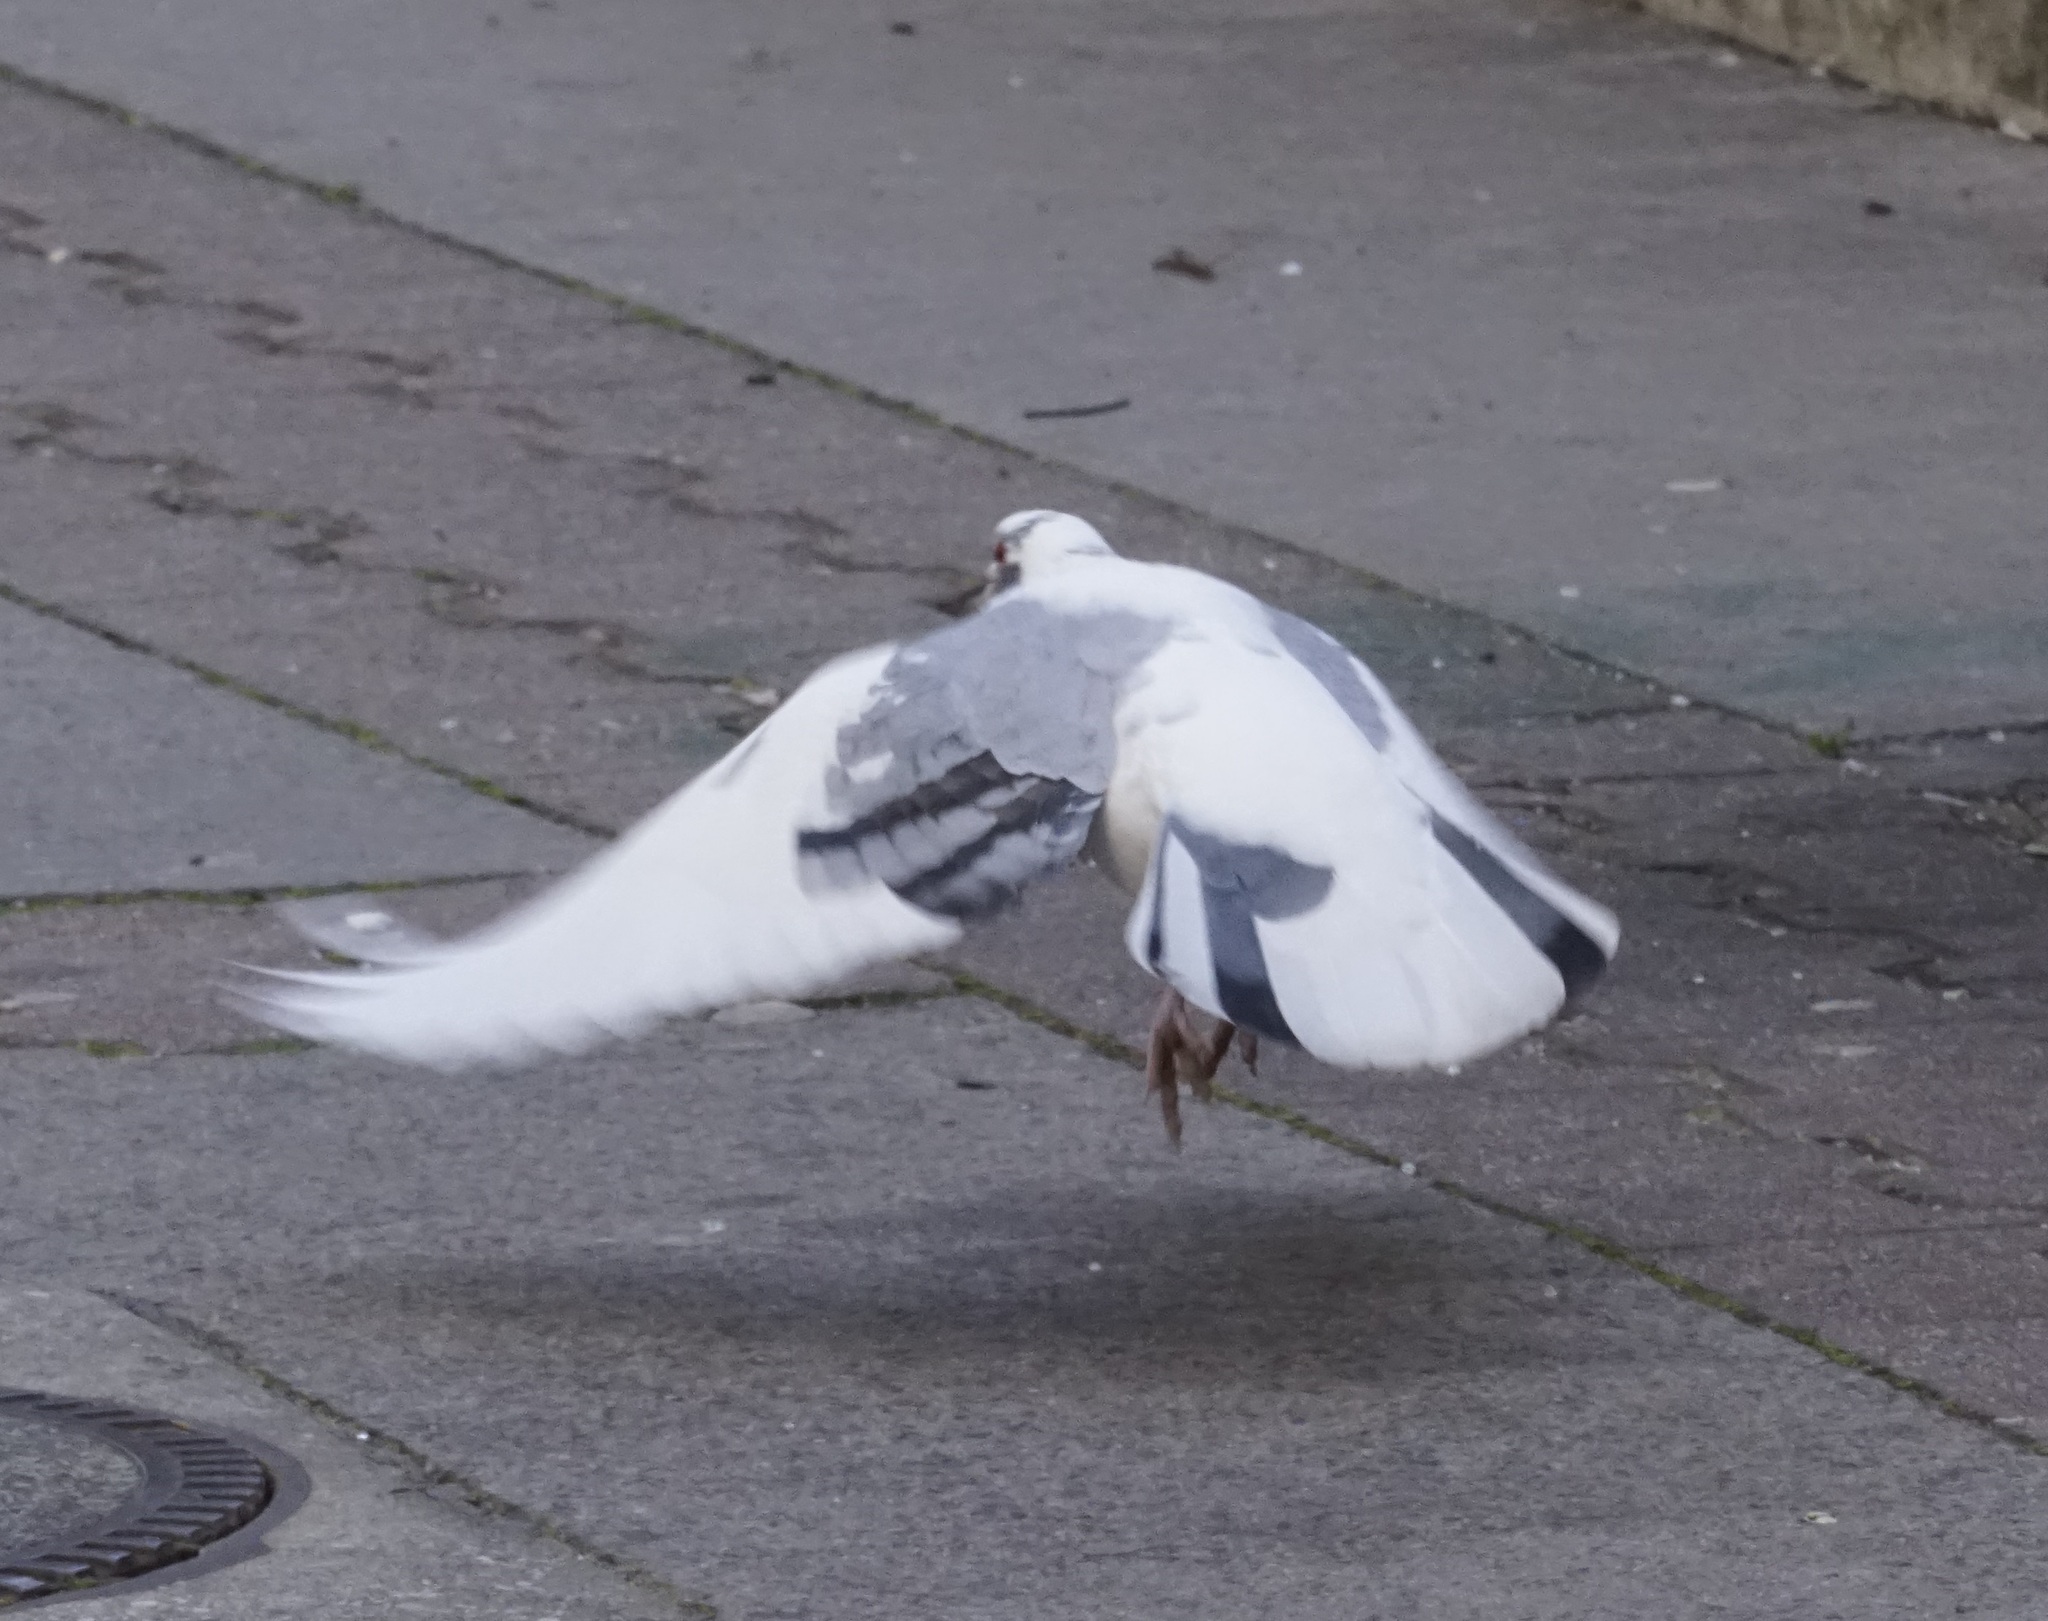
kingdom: Animalia
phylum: Chordata
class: Aves
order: Columbiformes
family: Columbidae
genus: Columba
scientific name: Columba livia
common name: Rock pigeon
